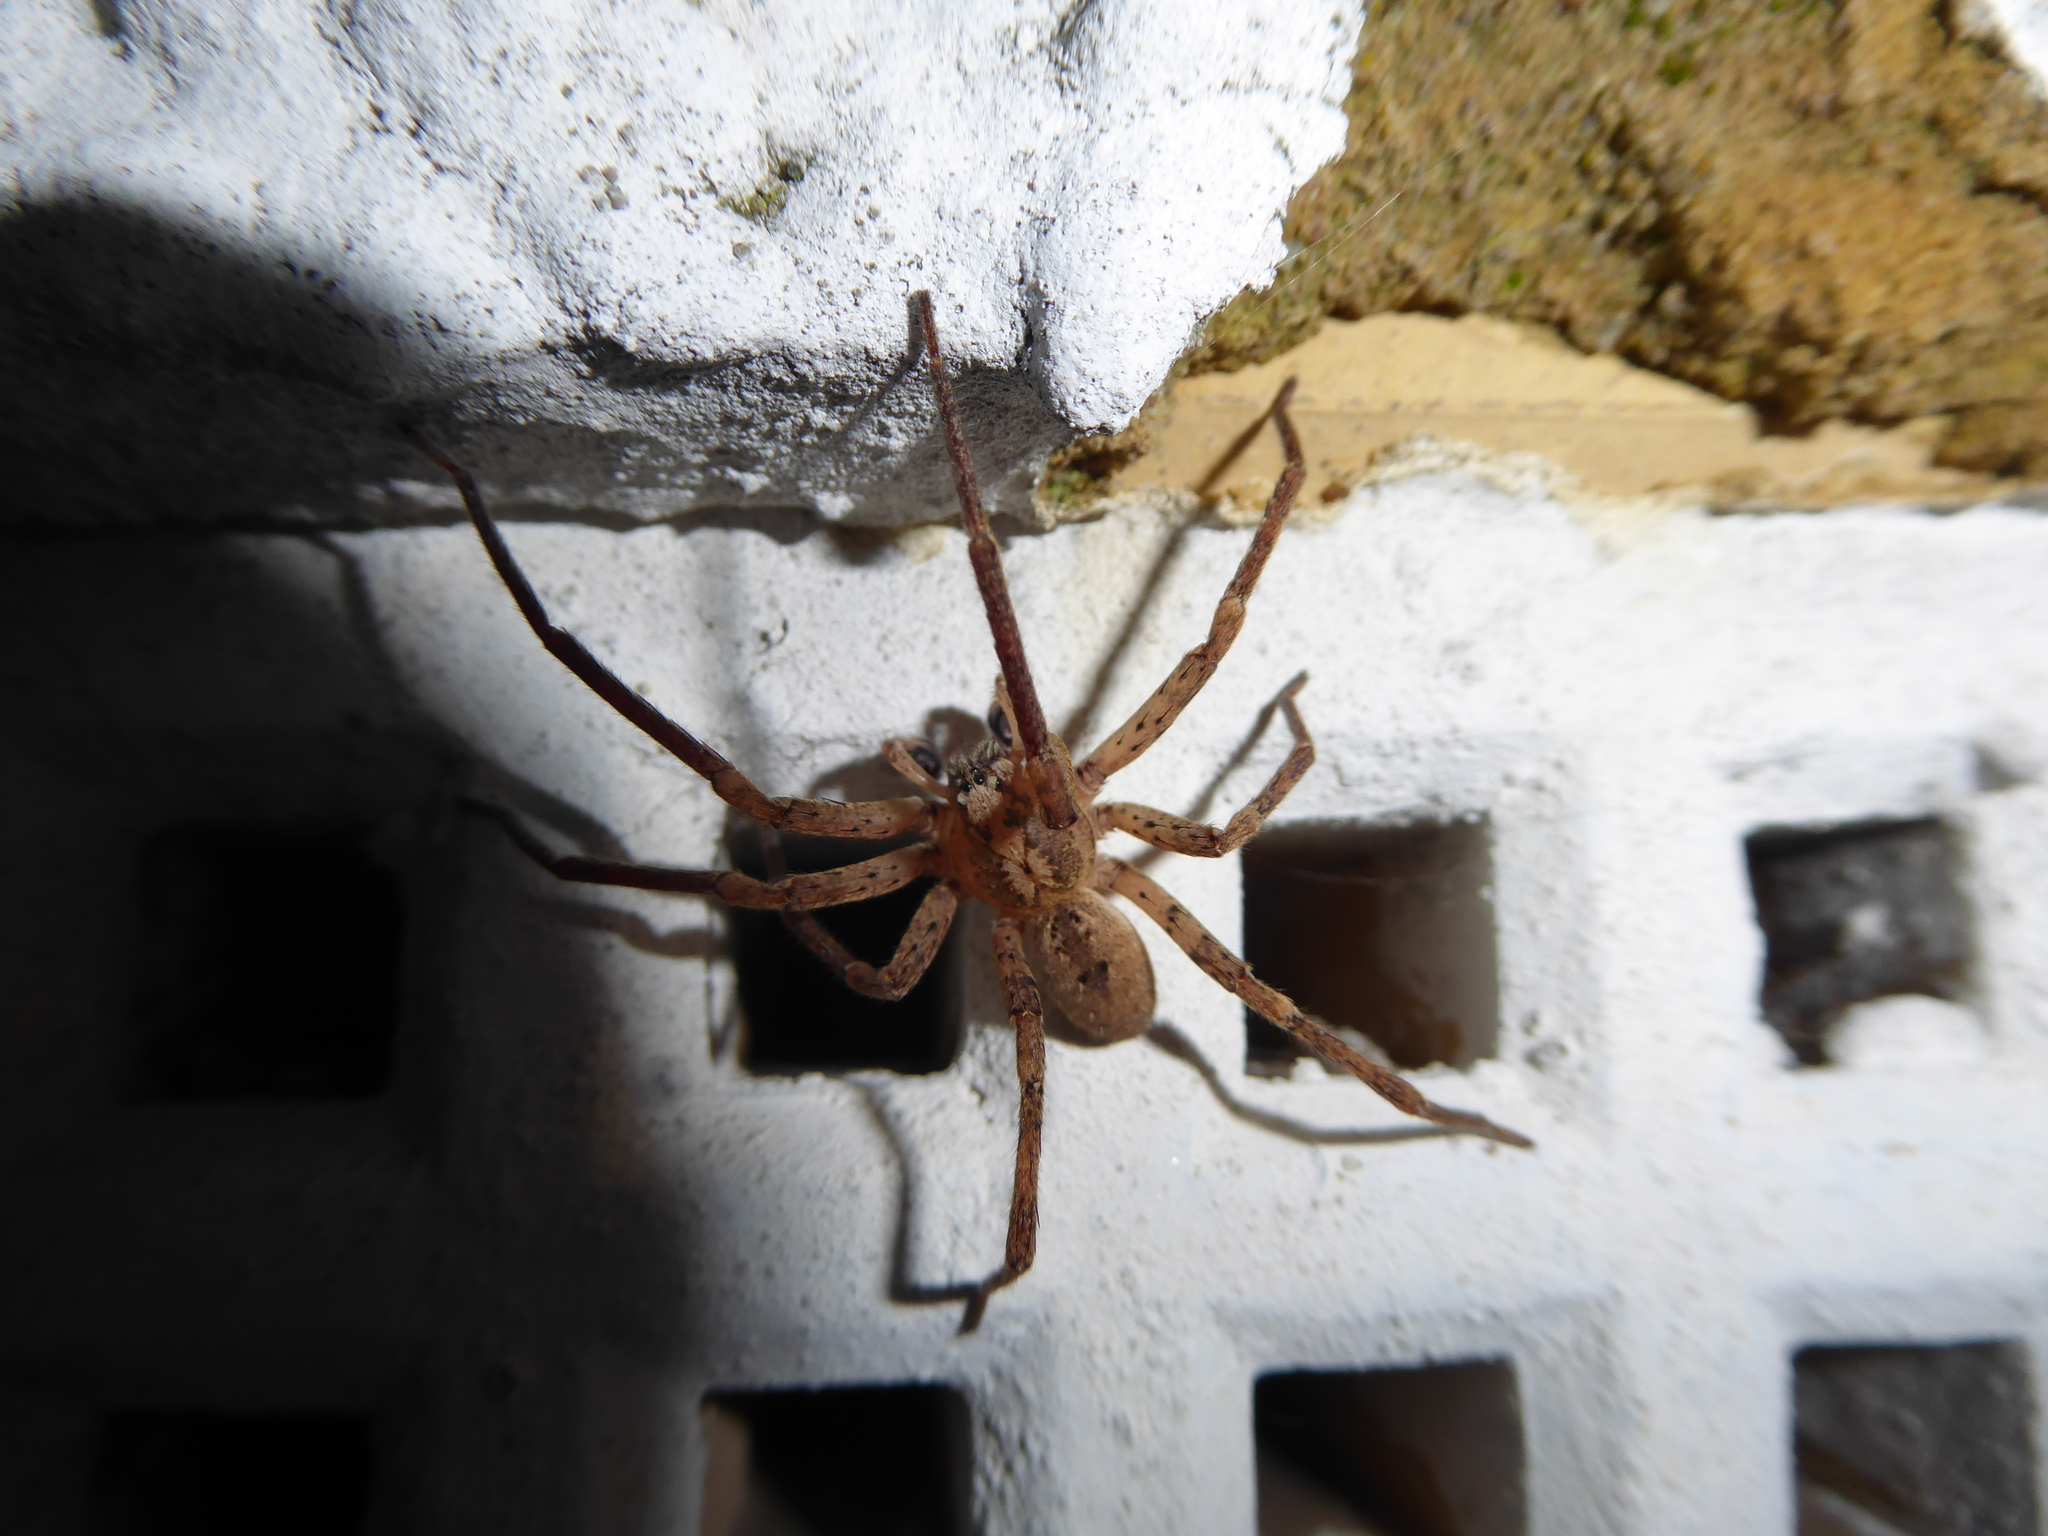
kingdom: Animalia
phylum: Arthropoda
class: Arachnida
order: Araneae
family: Zoropsidae
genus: Zoropsis
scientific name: Zoropsis spinimana
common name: Zoropsid spider
